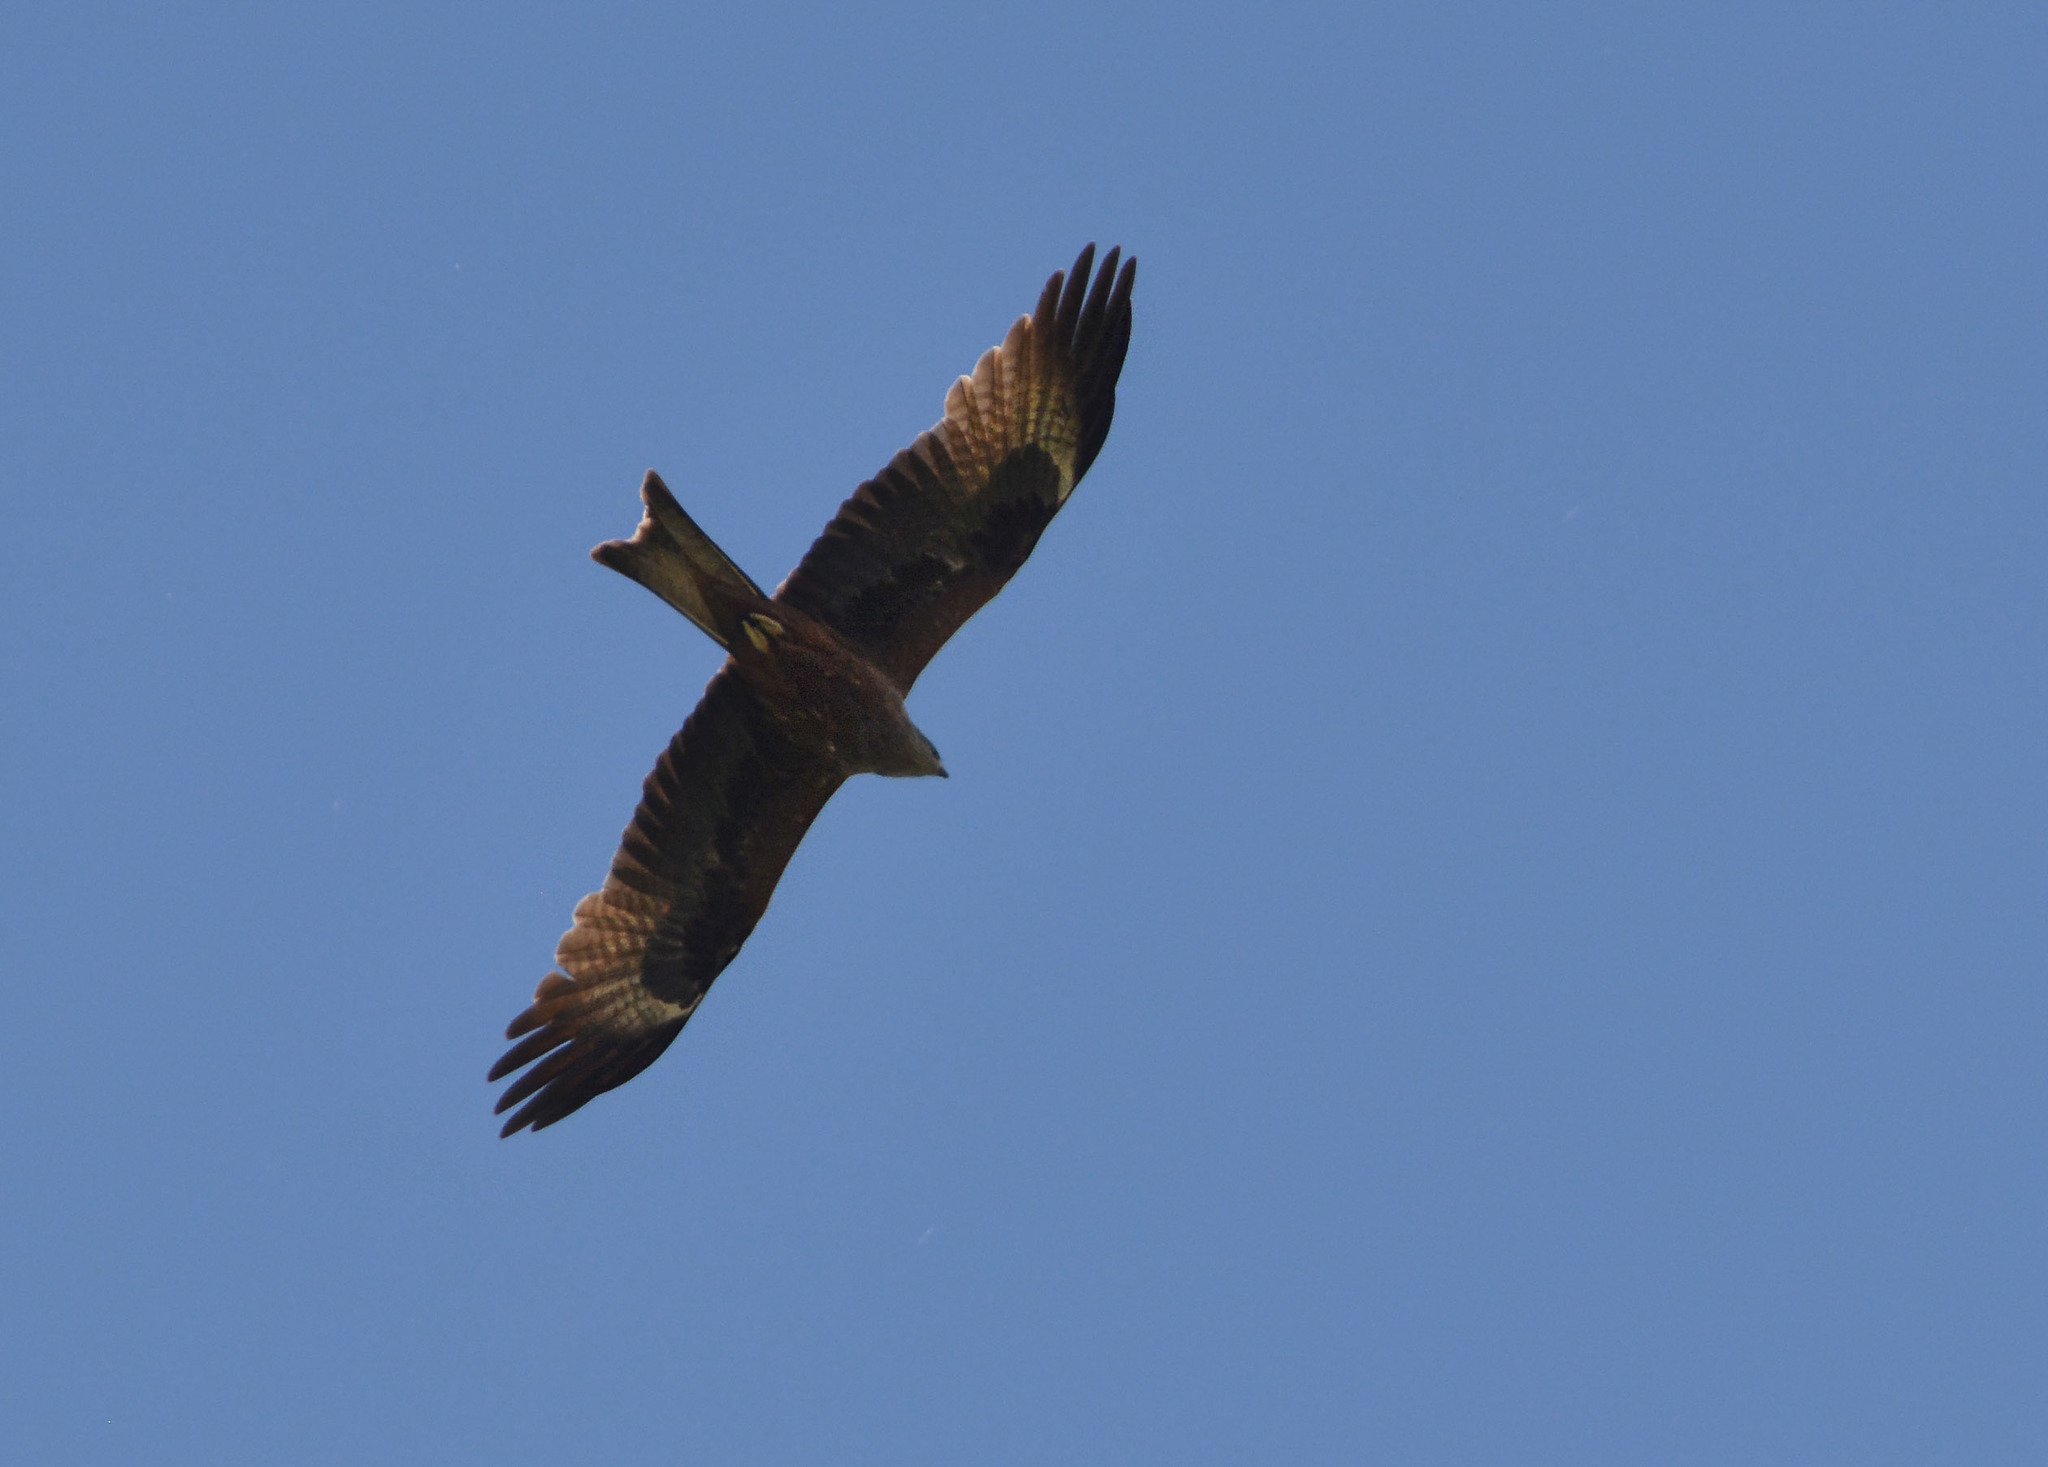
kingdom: Animalia
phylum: Chordata
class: Aves
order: Accipitriformes
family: Accipitridae
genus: Milvus
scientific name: Milvus migrans
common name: Black kite
